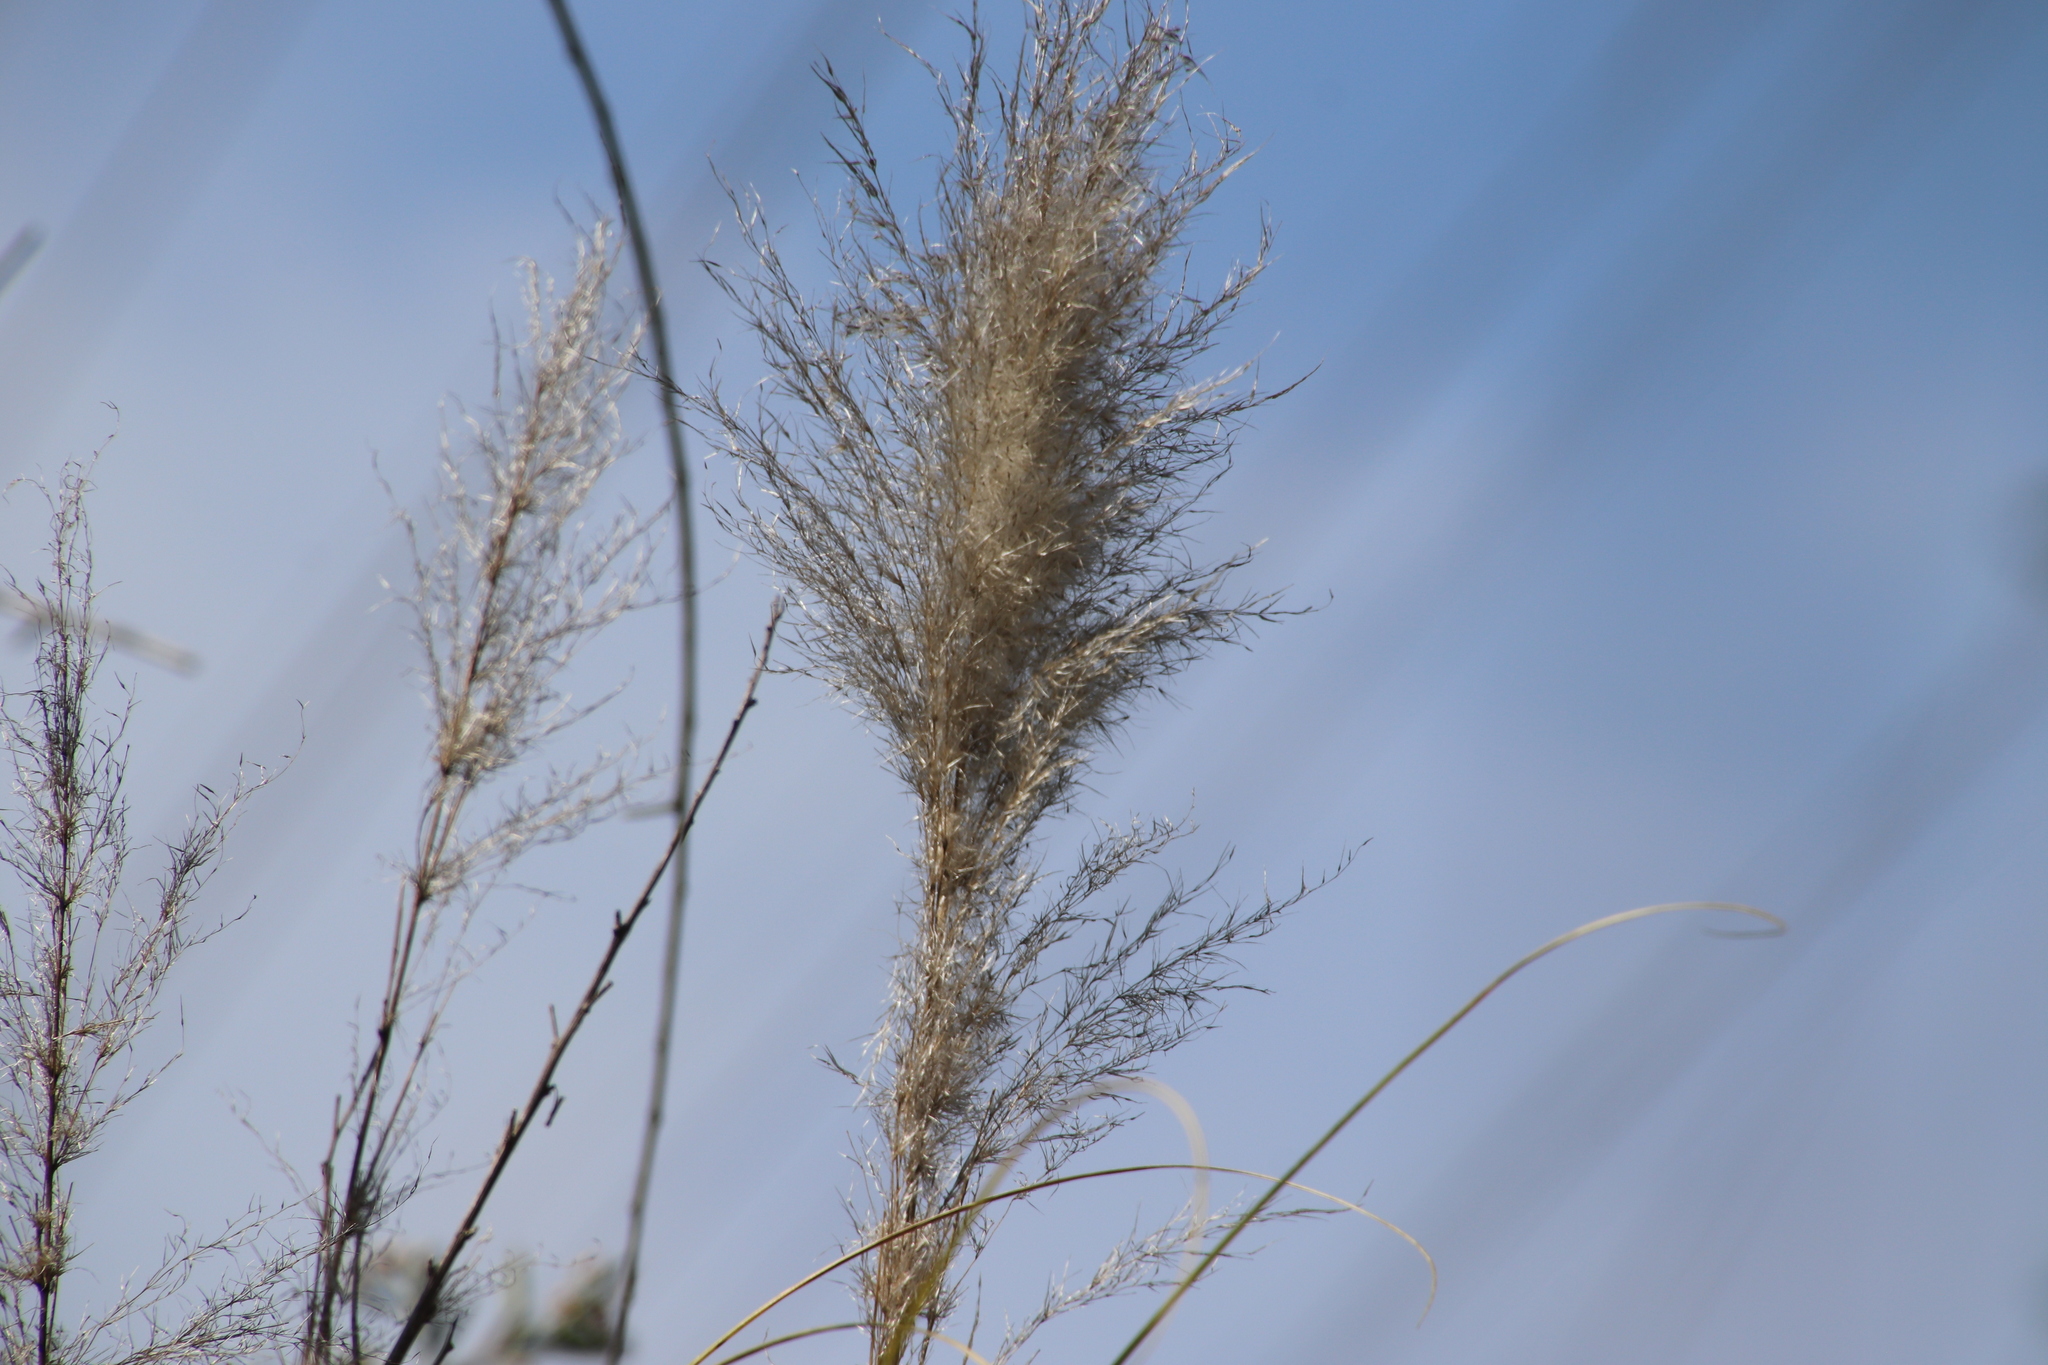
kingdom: Plantae
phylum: Tracheophyta
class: Liliopsida
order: Poales
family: Poaceae
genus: Cortaderia
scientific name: Cortaderia selloana
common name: Uruguayan pampas grass
